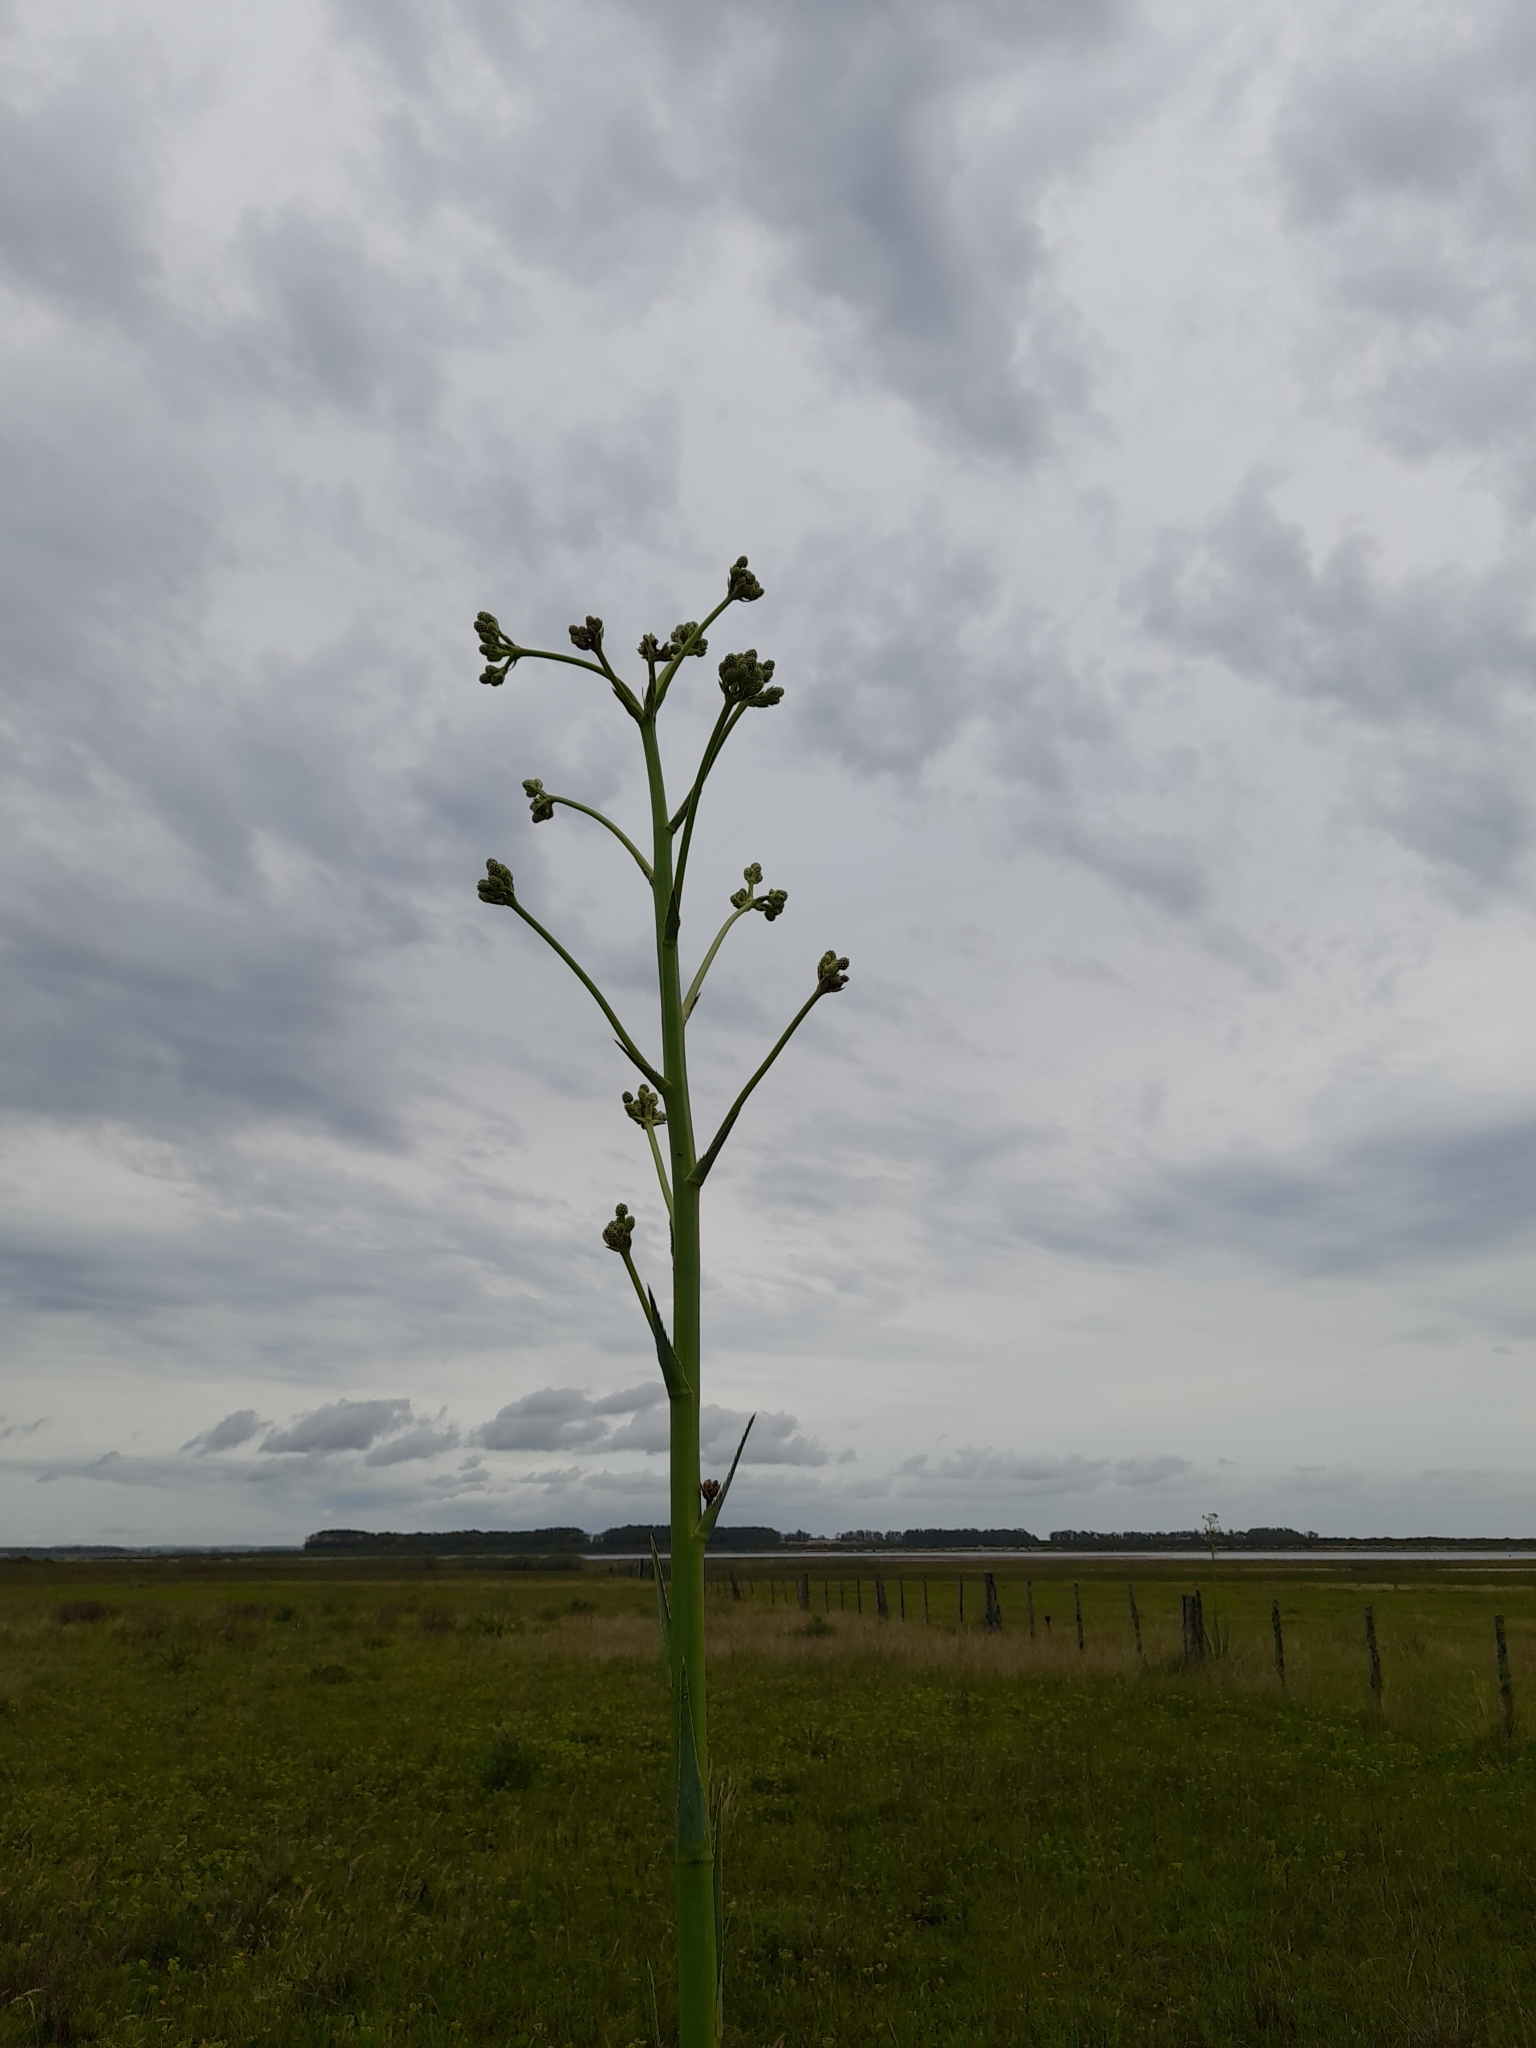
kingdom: Plantae
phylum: Tracheophyta
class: Magnoliopsida
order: Apiales
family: Apiaceae
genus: Eryngium
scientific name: Eryngium pandanifolium
